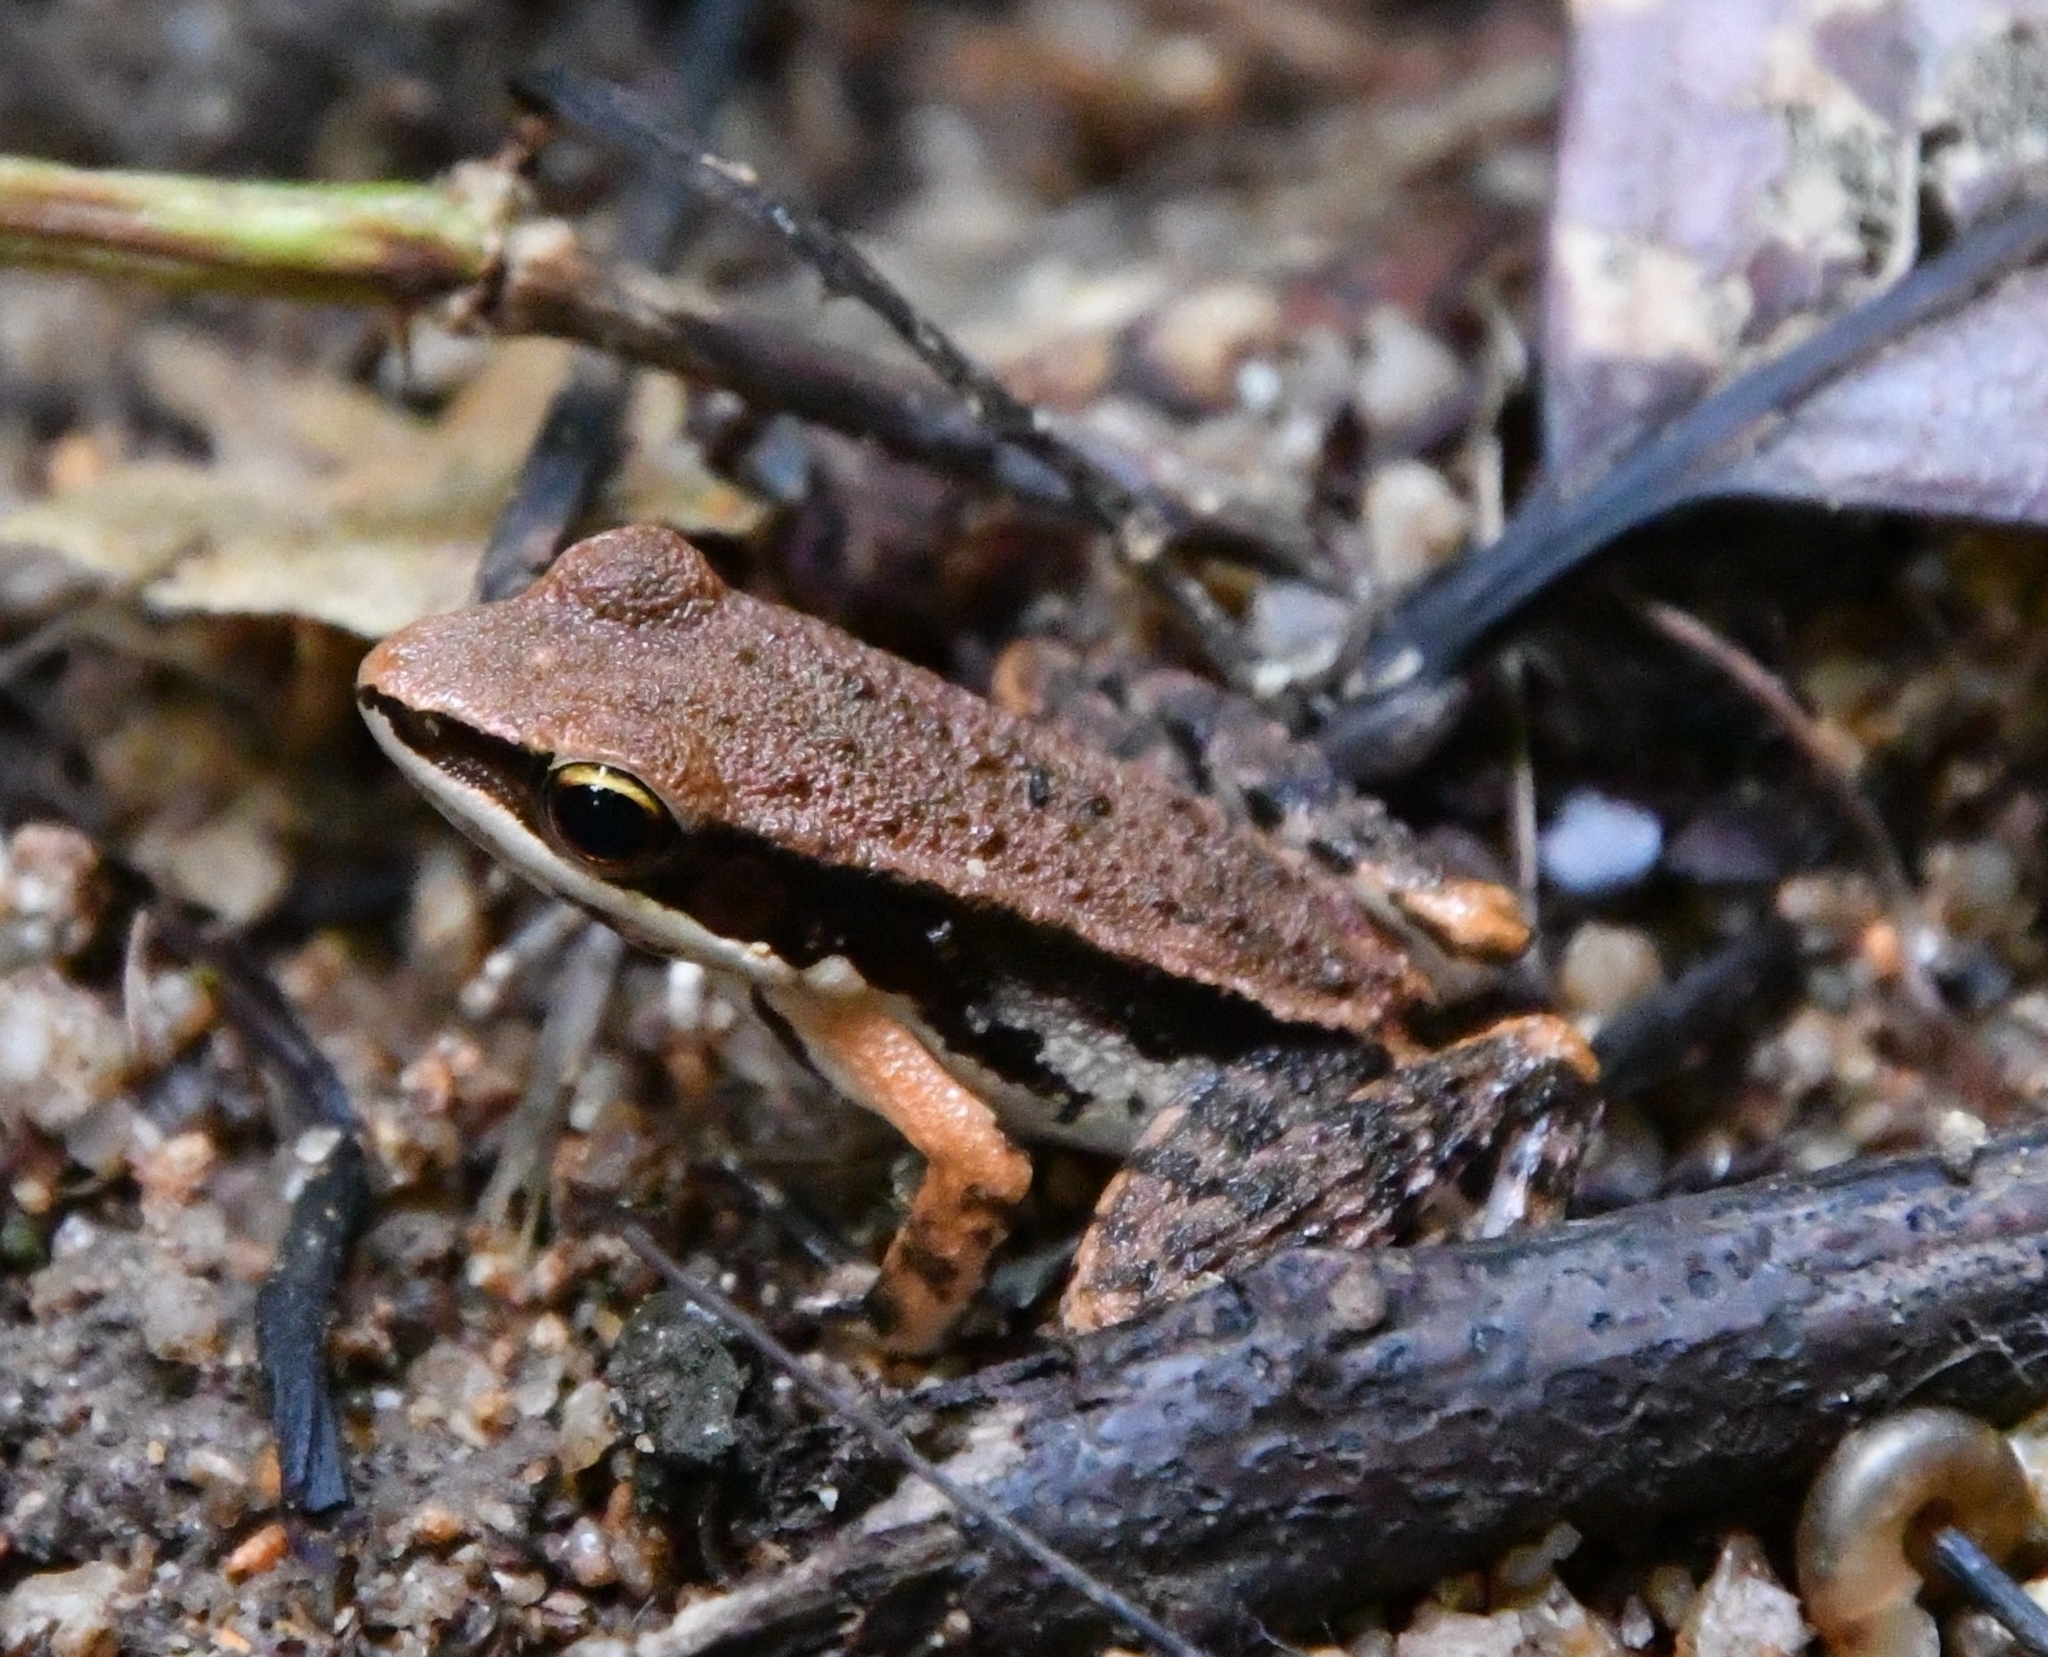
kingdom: Animalia
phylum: Chordata
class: Amphibia
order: Anura
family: Ranidae
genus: Sylvirana
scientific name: Sylvirana malayana
